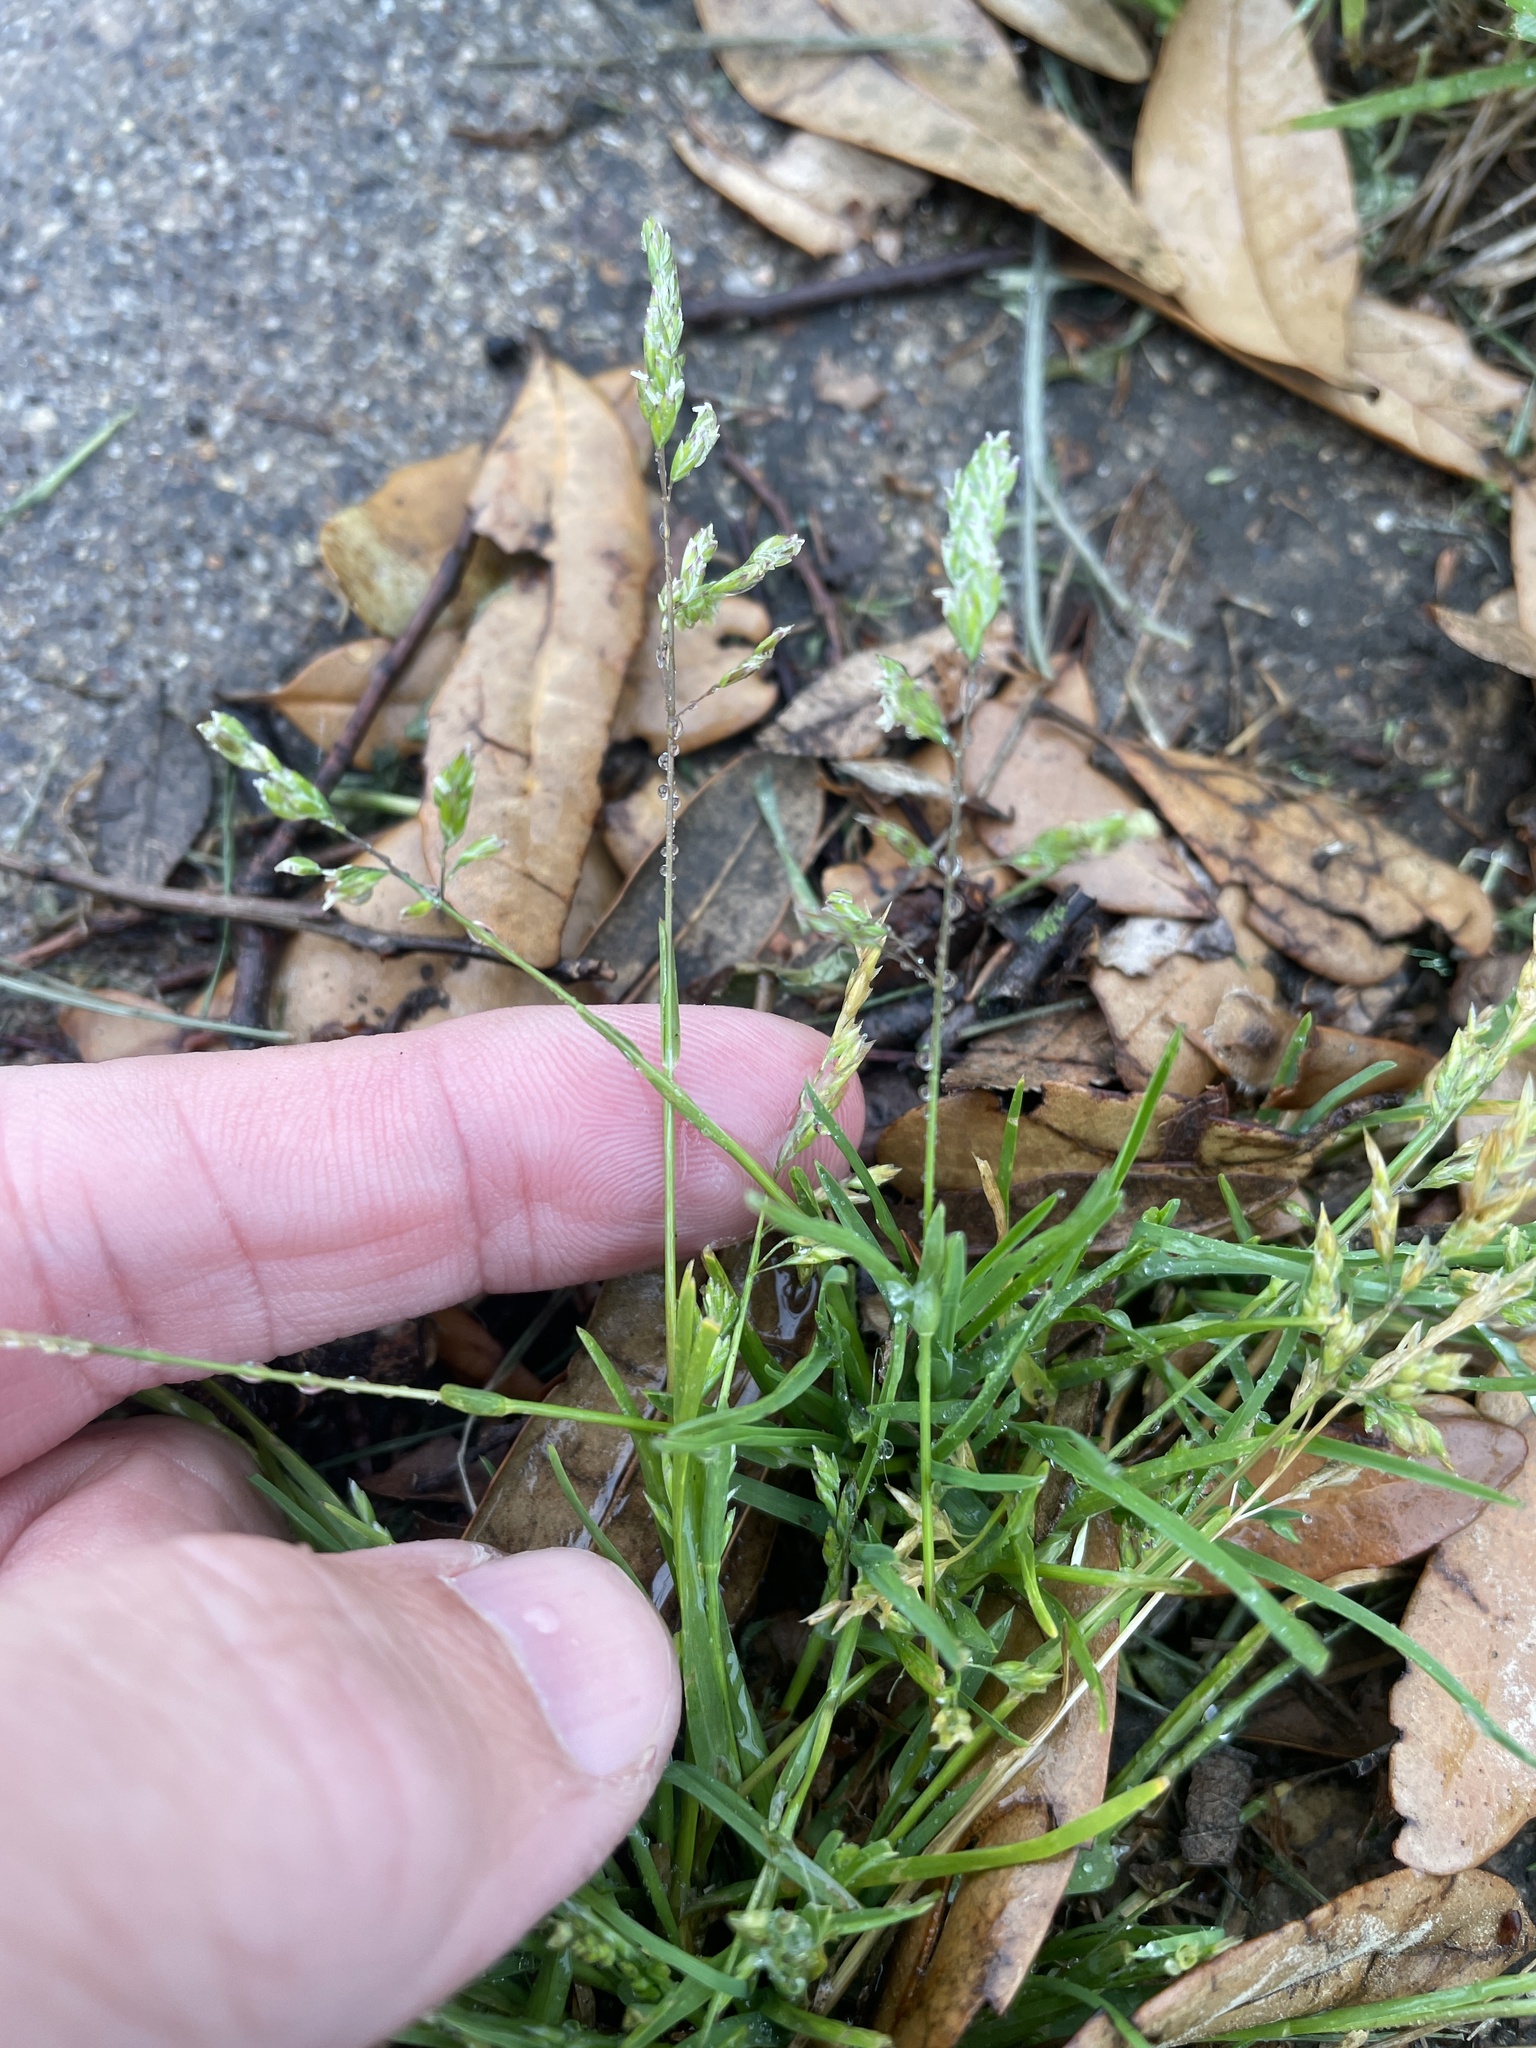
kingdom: Plantae
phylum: Tracheophyta
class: Liliopsida
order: Poales
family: Poaceae
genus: Poa
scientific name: Poa annua
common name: Annual bluegrass
